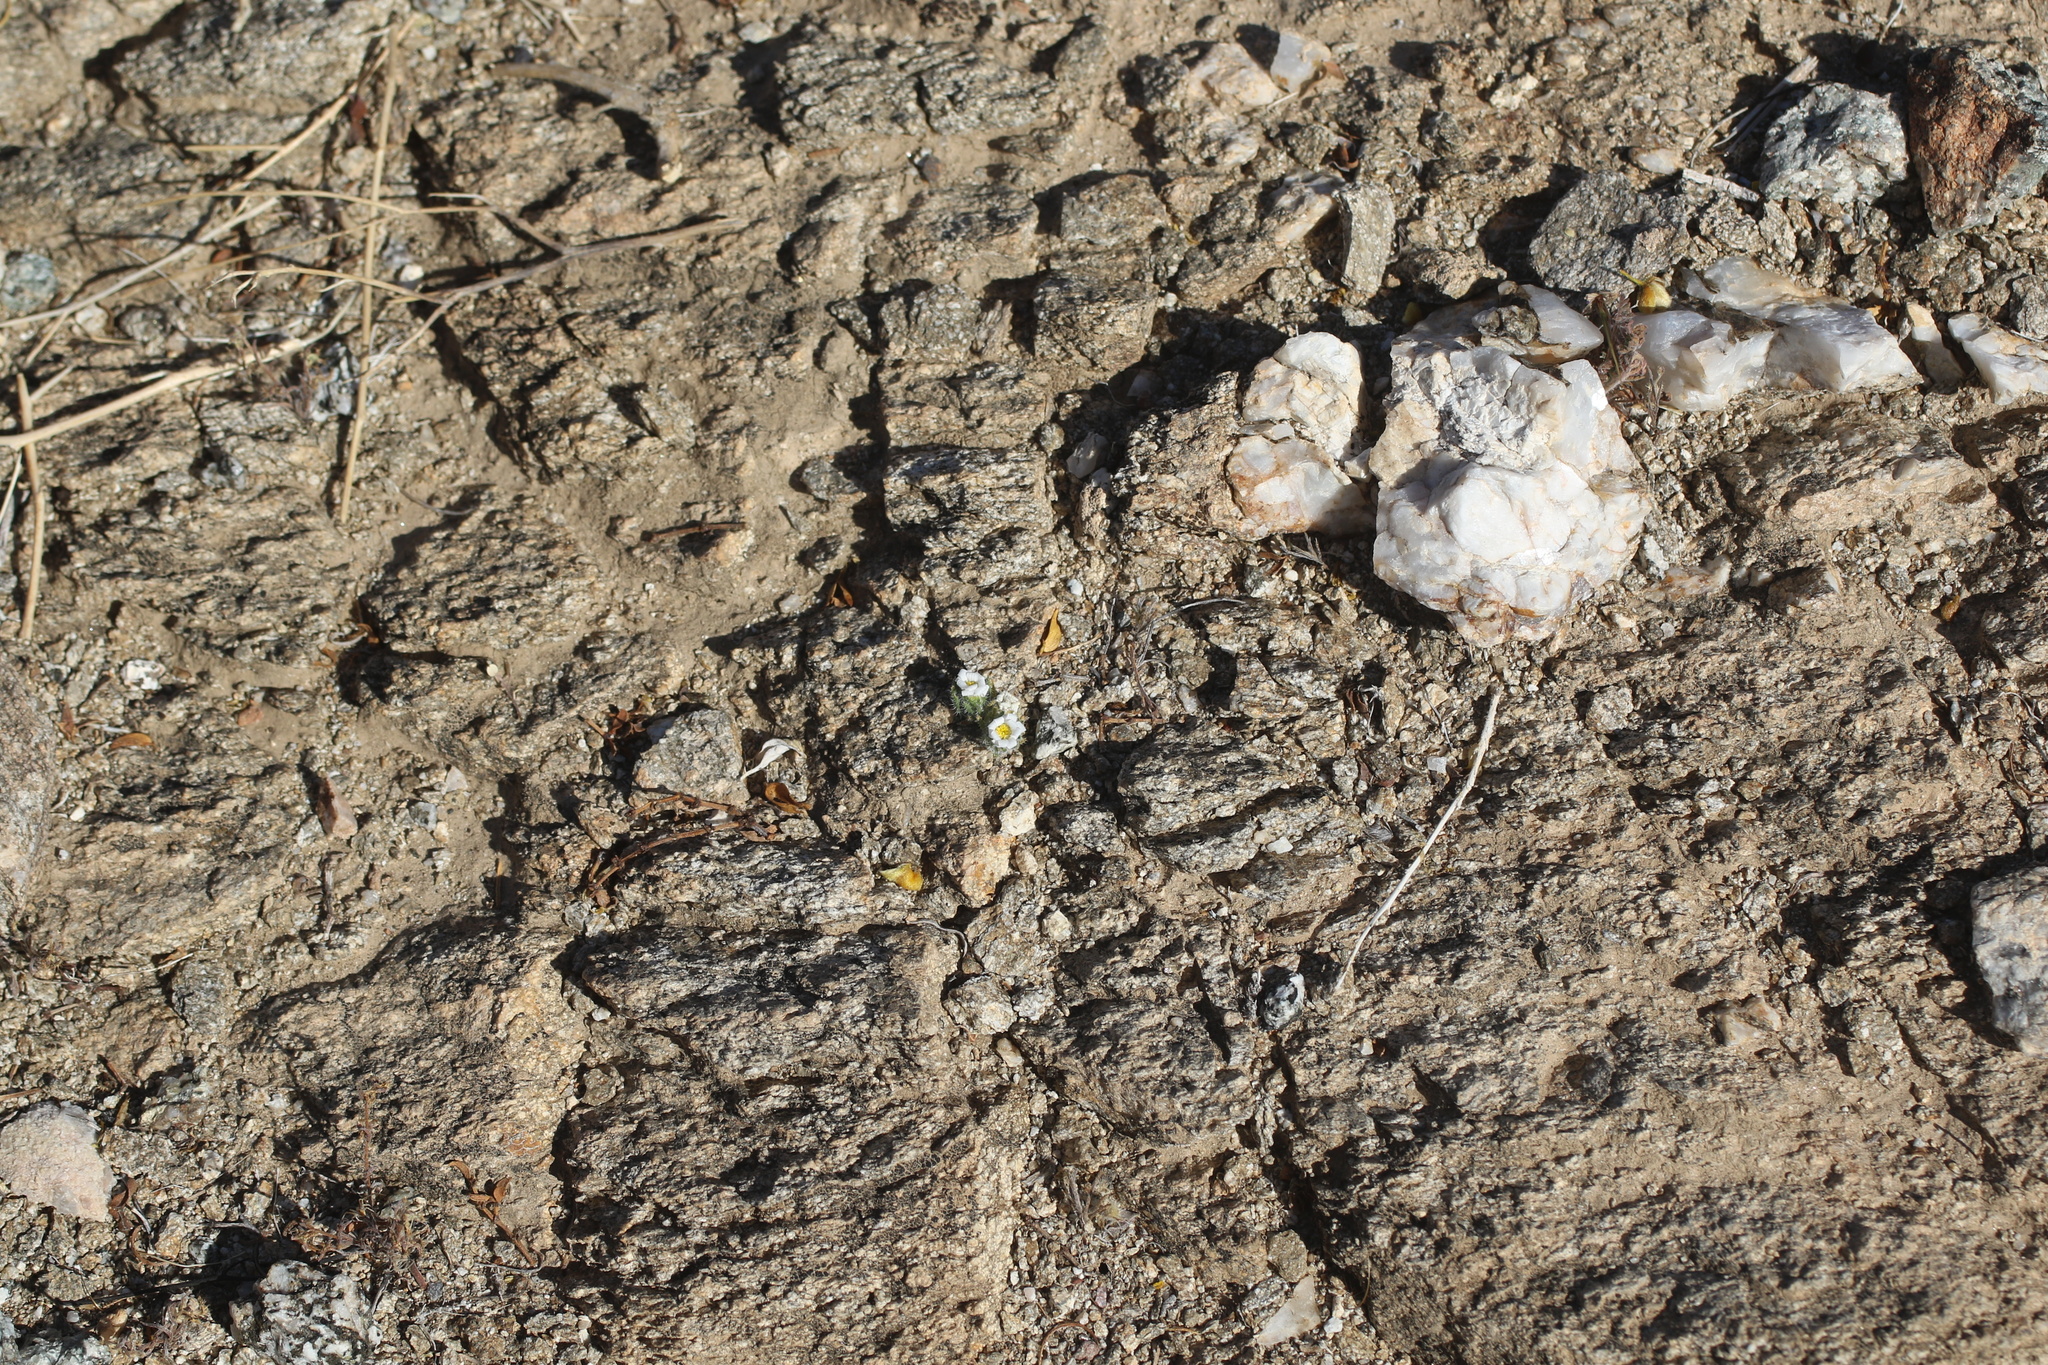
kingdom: Plantae
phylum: Tracheophyta
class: Magnoliopsida
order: Asterales
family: Asteraceae
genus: Monoptilon
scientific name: Monoptilon bellioides
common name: Bristly desertstar
